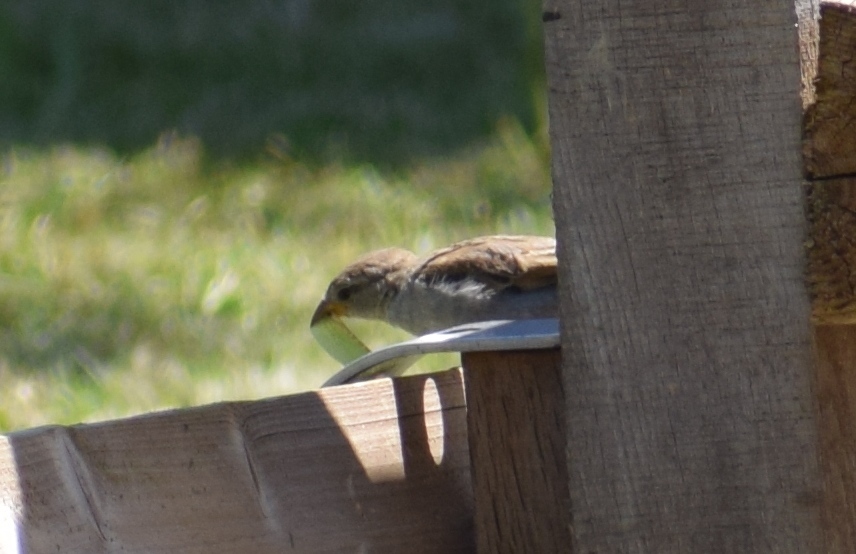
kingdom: Animalia
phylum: Chordata
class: Aves
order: Passeriformes
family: Passeridae
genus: Passer
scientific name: Passer domesticus
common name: House sparrow
